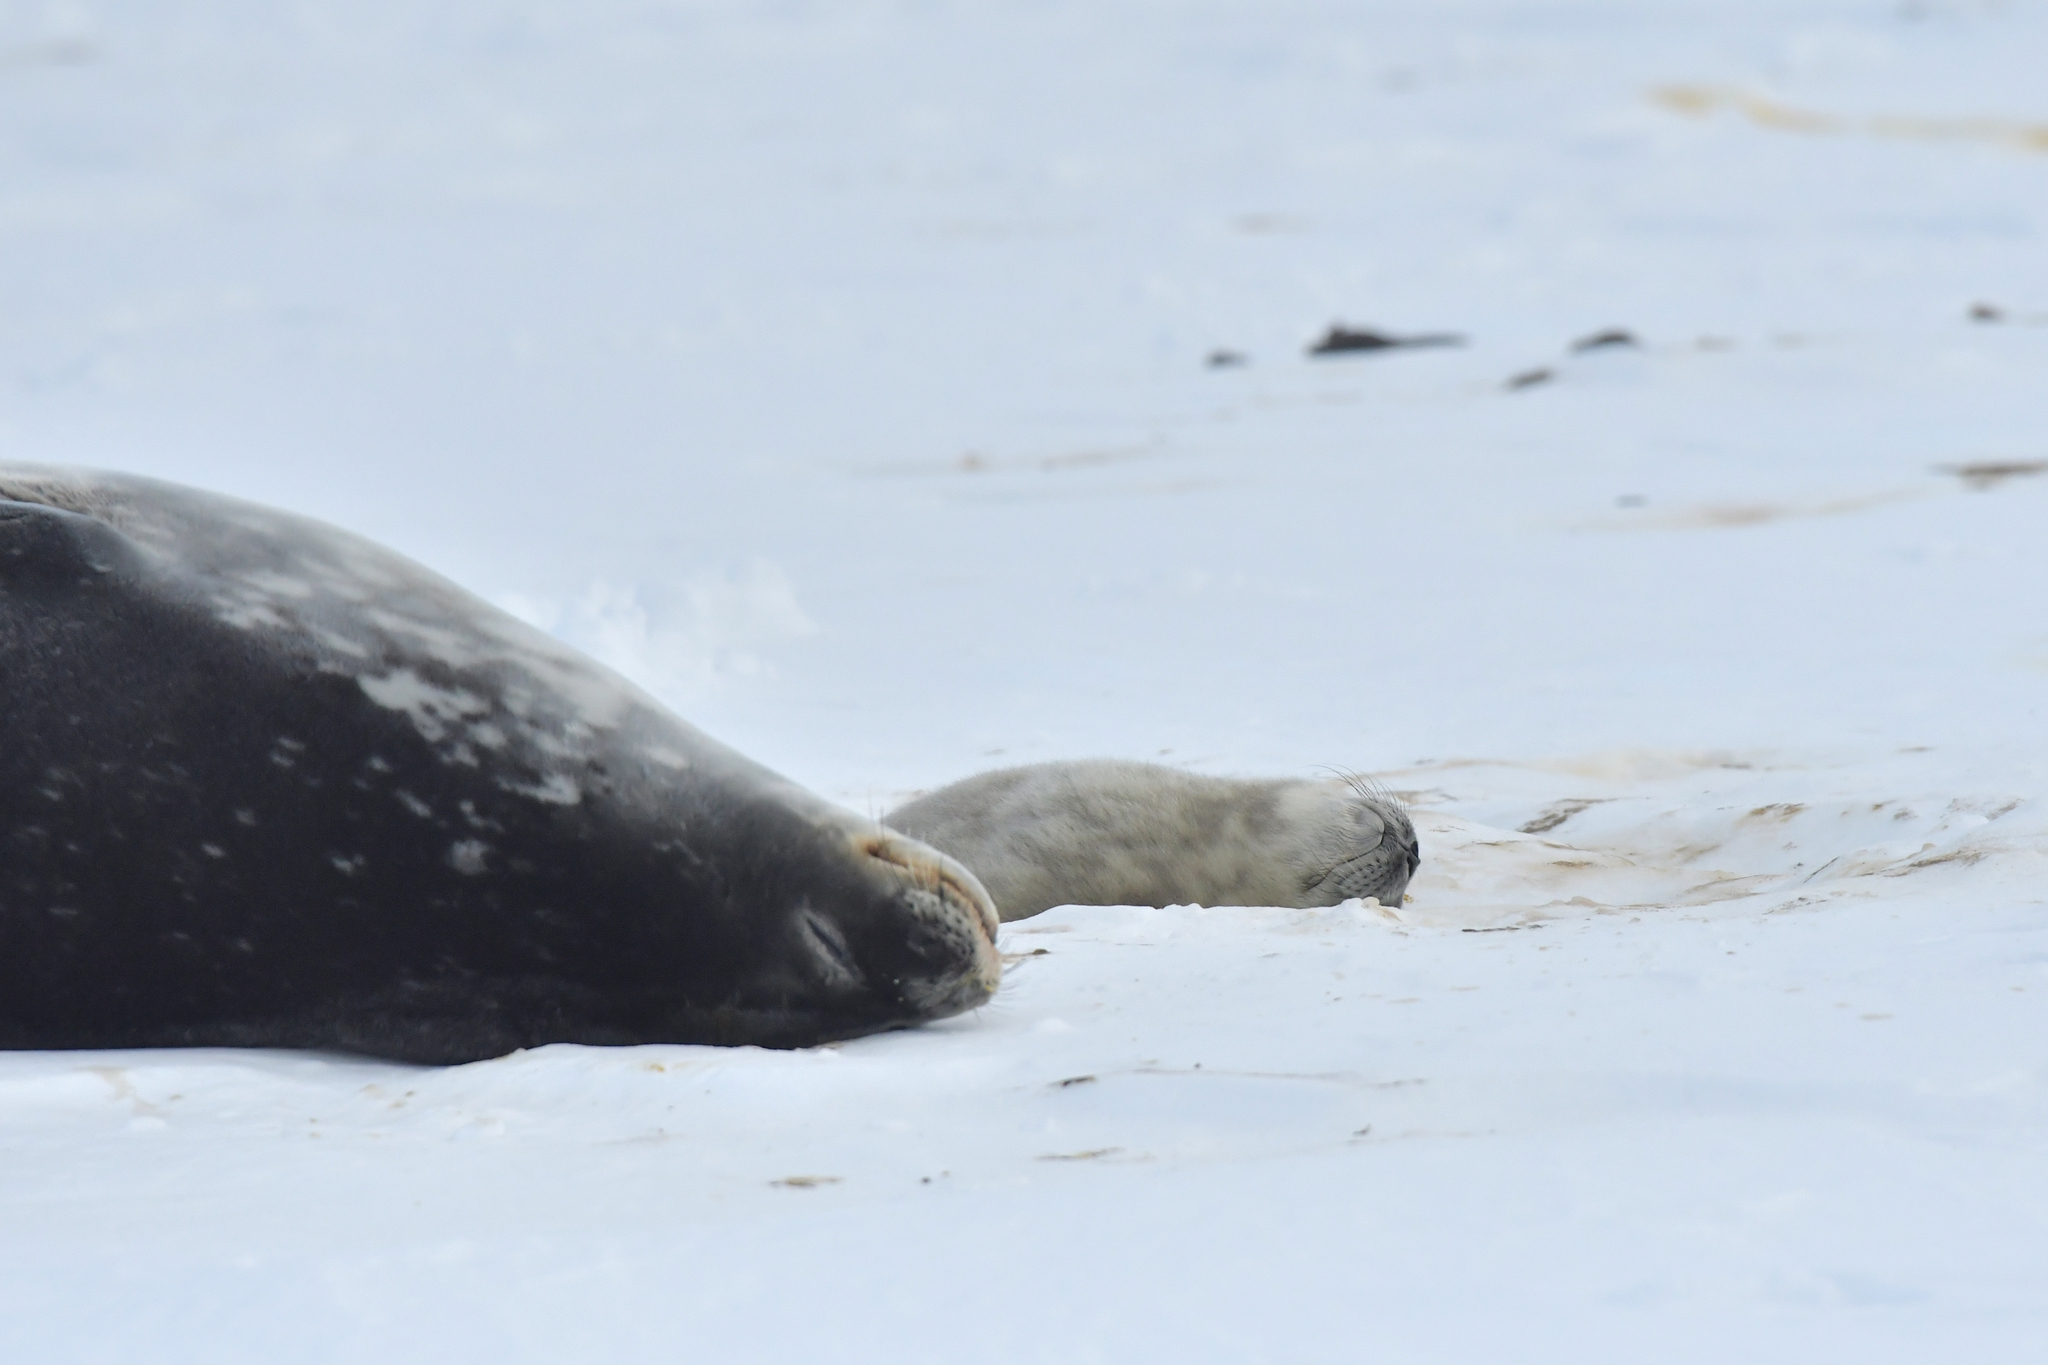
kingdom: Animalia
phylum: Chordata
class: Mammalia
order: Carnivora
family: Phocidae
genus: Leptonychotes
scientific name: Leptonychotes weddellii
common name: Weddell seal
